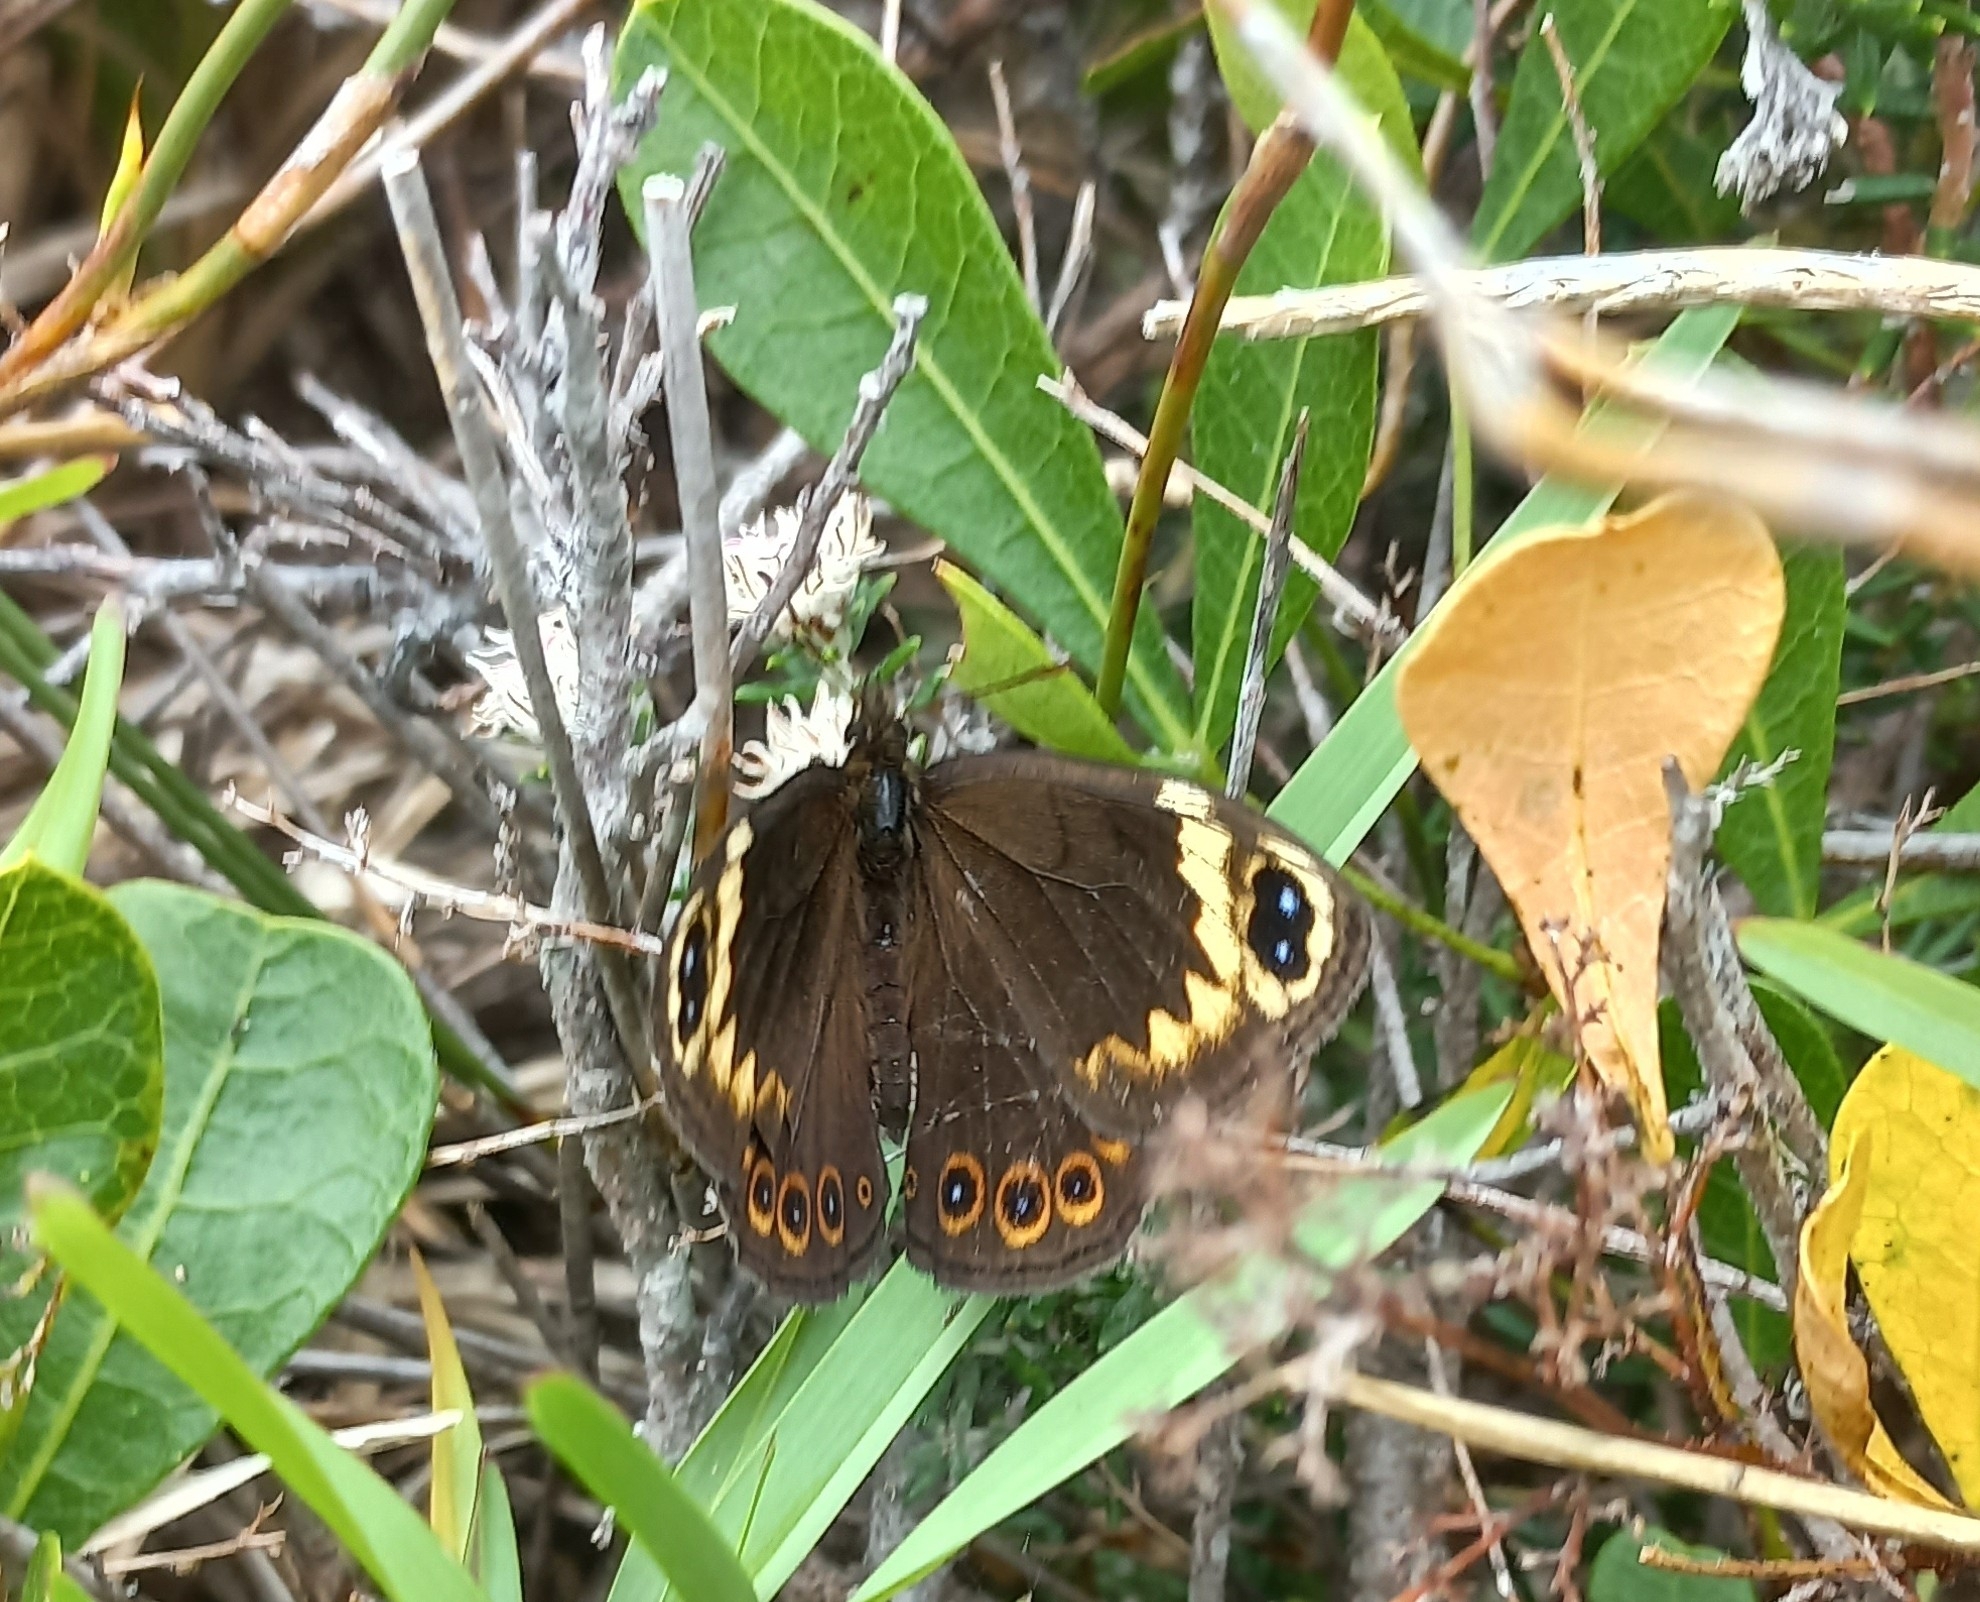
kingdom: Animalia
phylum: Arthropoda
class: Insecta
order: Lepidoptera
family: Nymphalidae
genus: Dira
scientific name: Dira clytus
